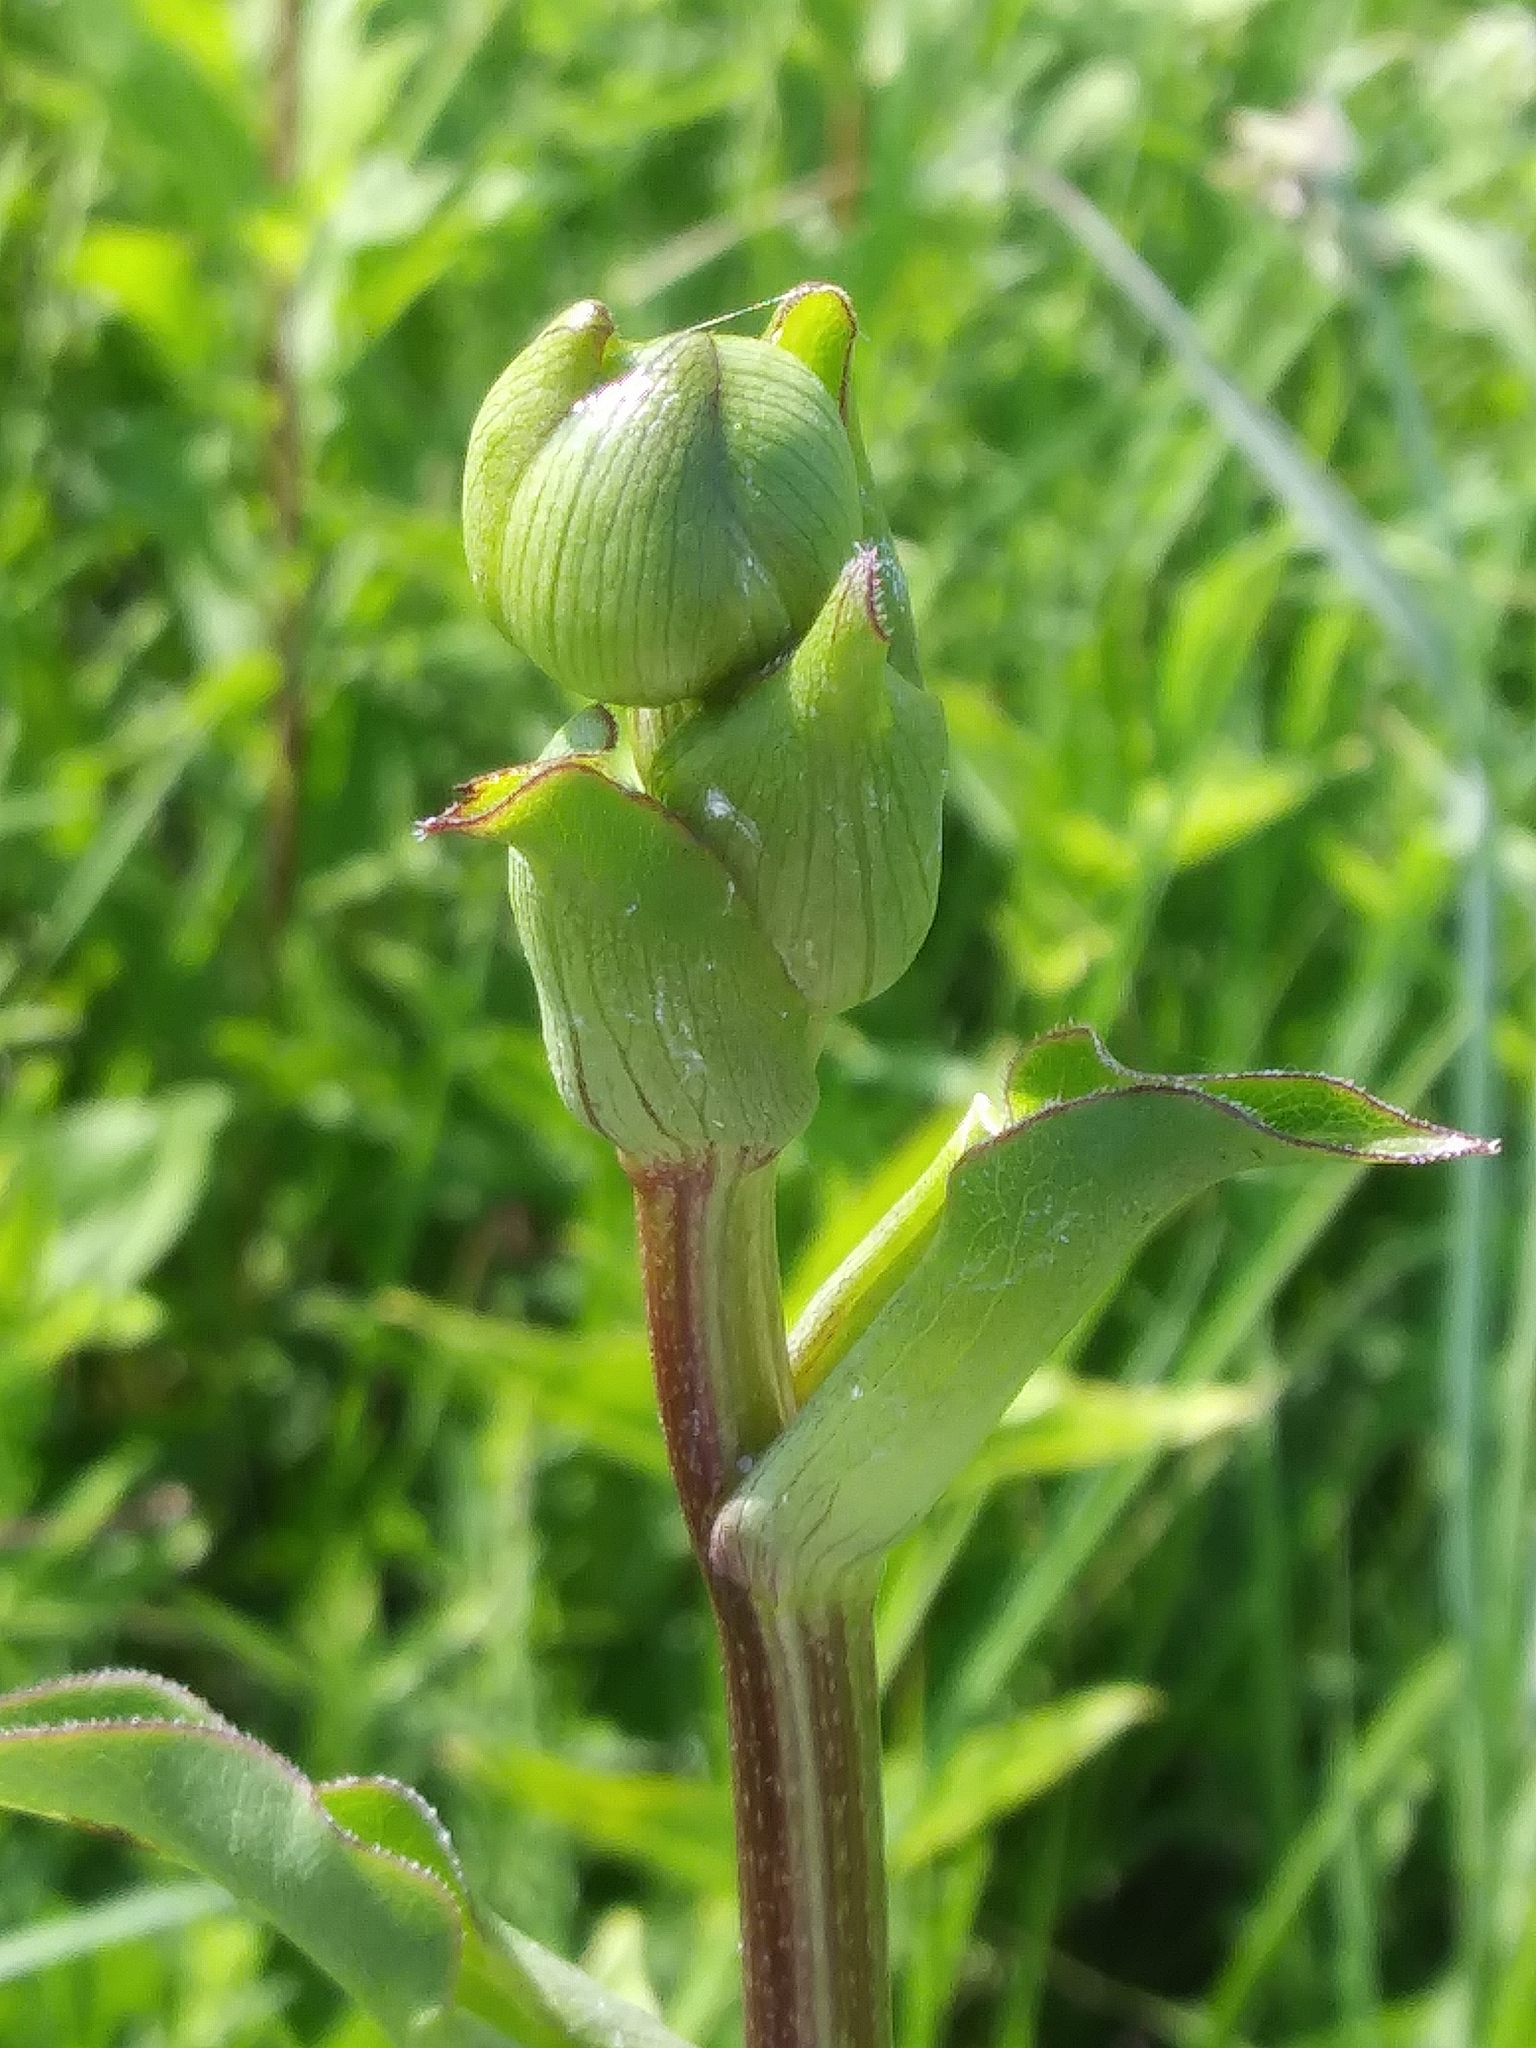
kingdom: Plantae
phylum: Tracheophyta
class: Magnoliopsida
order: Asterales
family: Asteraceae
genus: Silphium
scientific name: Silphium terebinthinaceum
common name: Basal-leaf rosinweed
